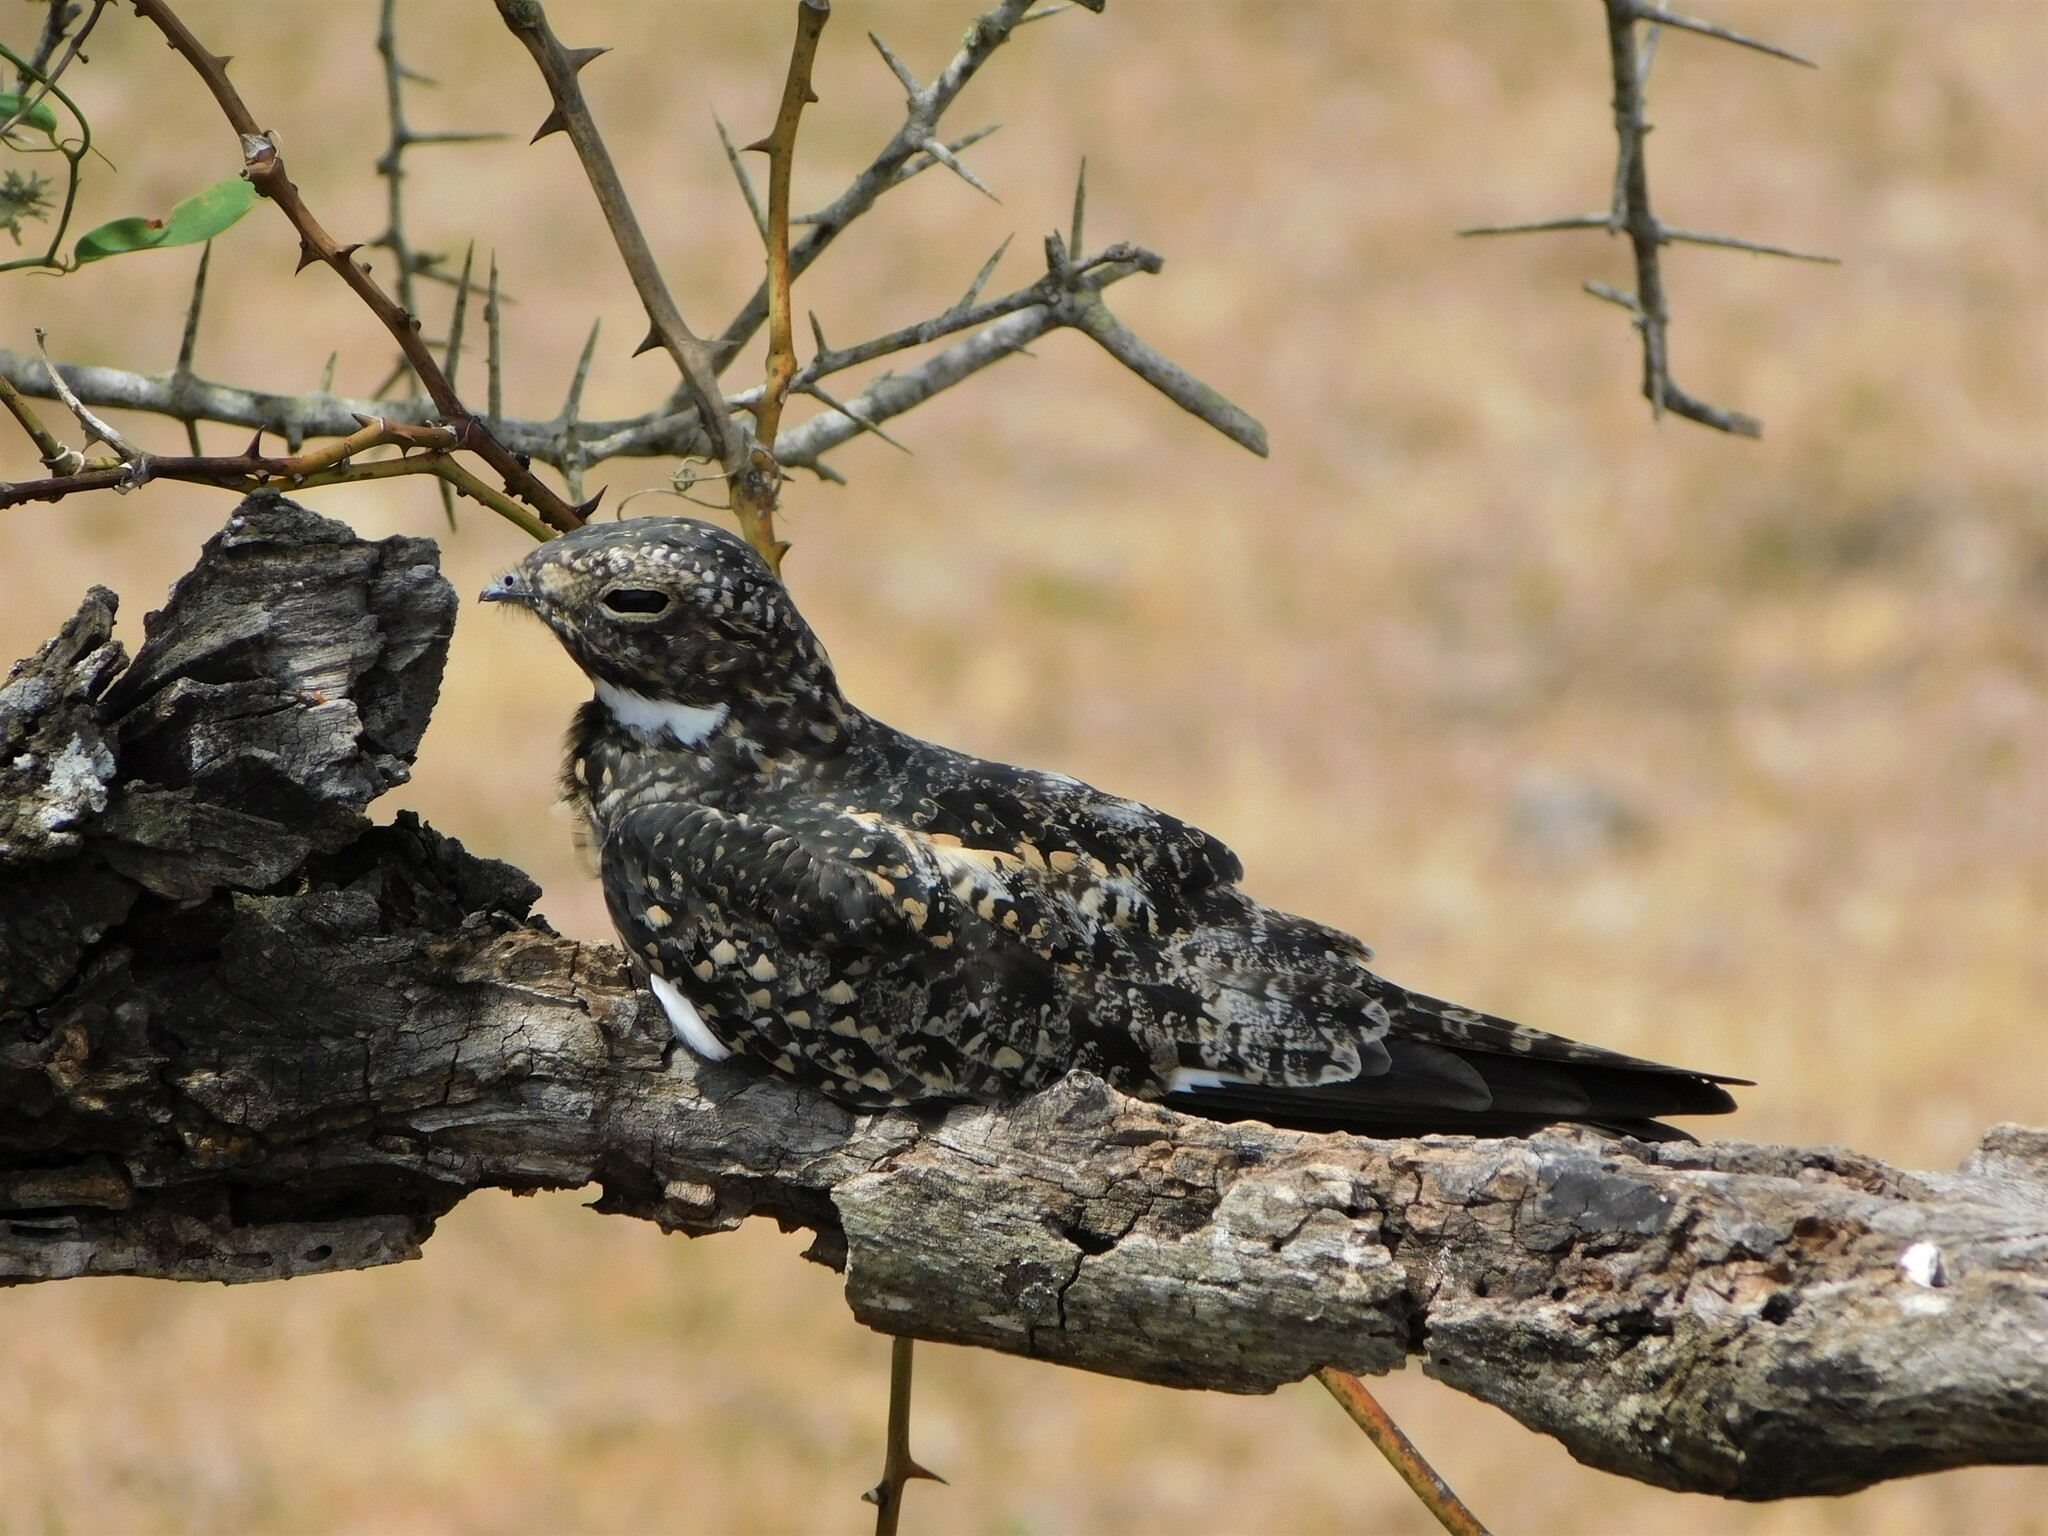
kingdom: Animalia
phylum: Chordata
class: Aves
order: Caprimulgiformes
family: Caprimulgidae
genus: Chordeiles
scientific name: Chordeiles minor
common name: Common nighthawk
